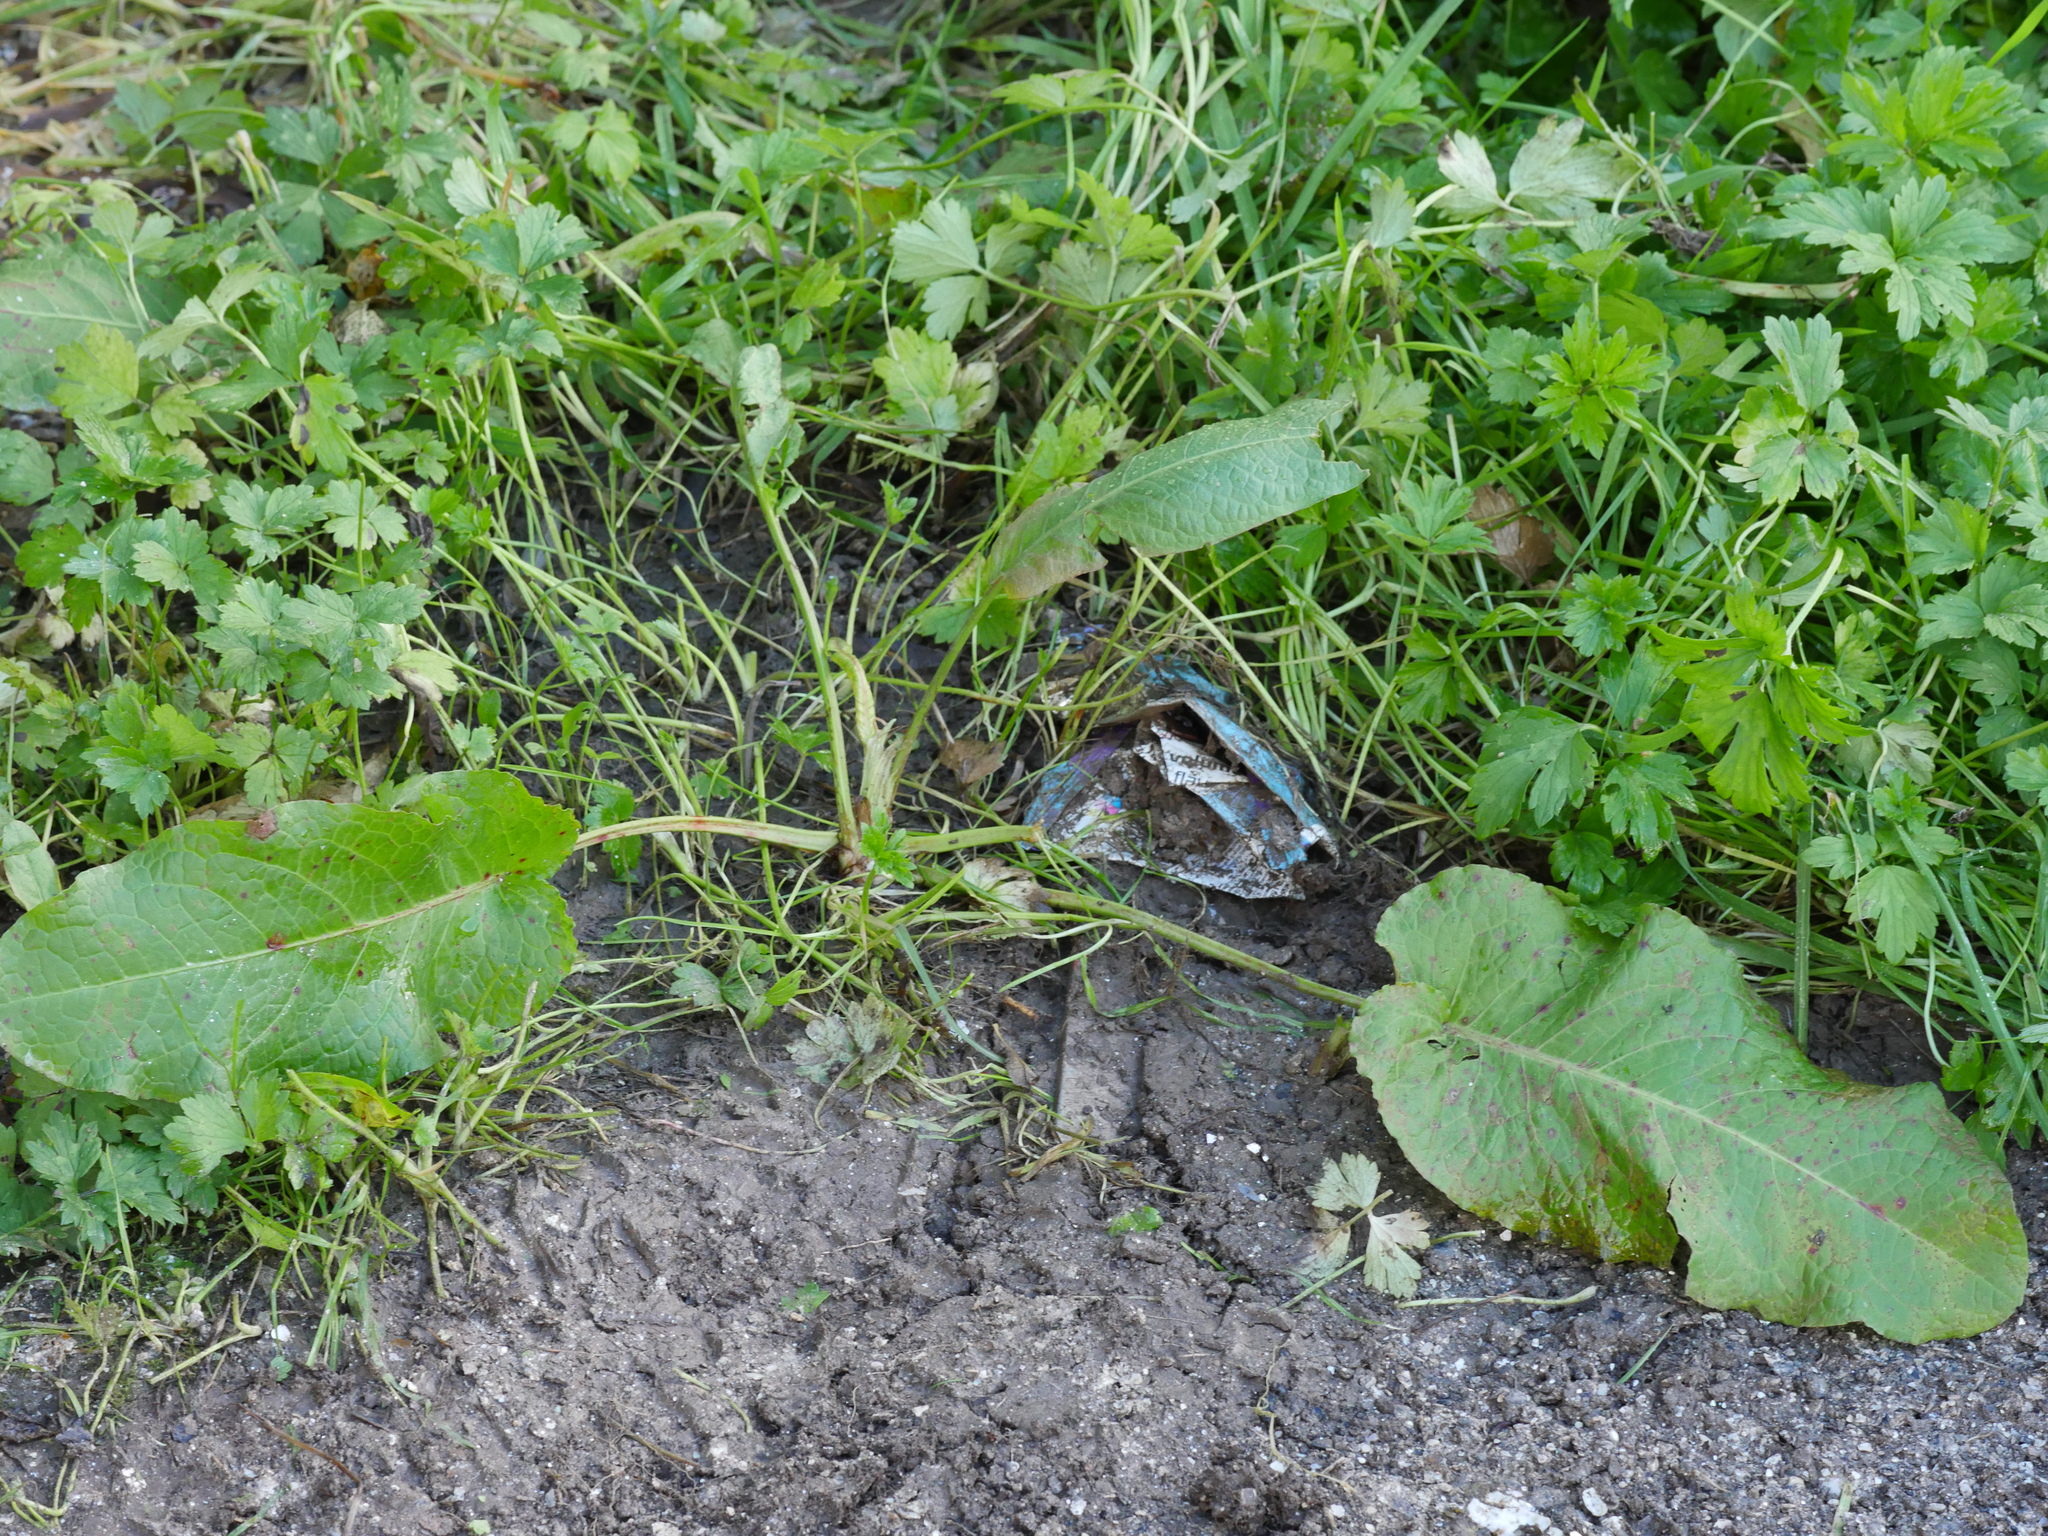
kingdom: Plantae
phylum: Tracheophyta
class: Magnoliopsida
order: Caryophyllales
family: Polygonaceae
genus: Rumex
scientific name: Rumex obtusifolius
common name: Bitter dock
